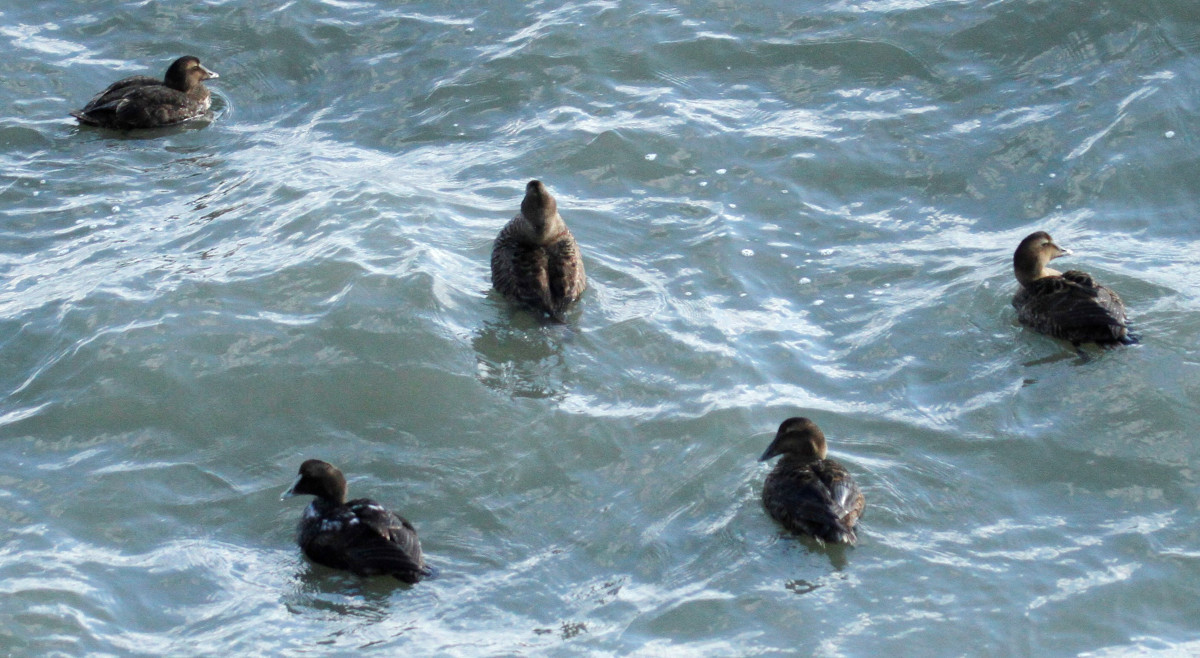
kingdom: Animalia
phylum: Chordata
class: Aves
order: Anseriformes
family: Anatidae
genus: Somateria
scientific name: Somateria mollissima
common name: Common eider
